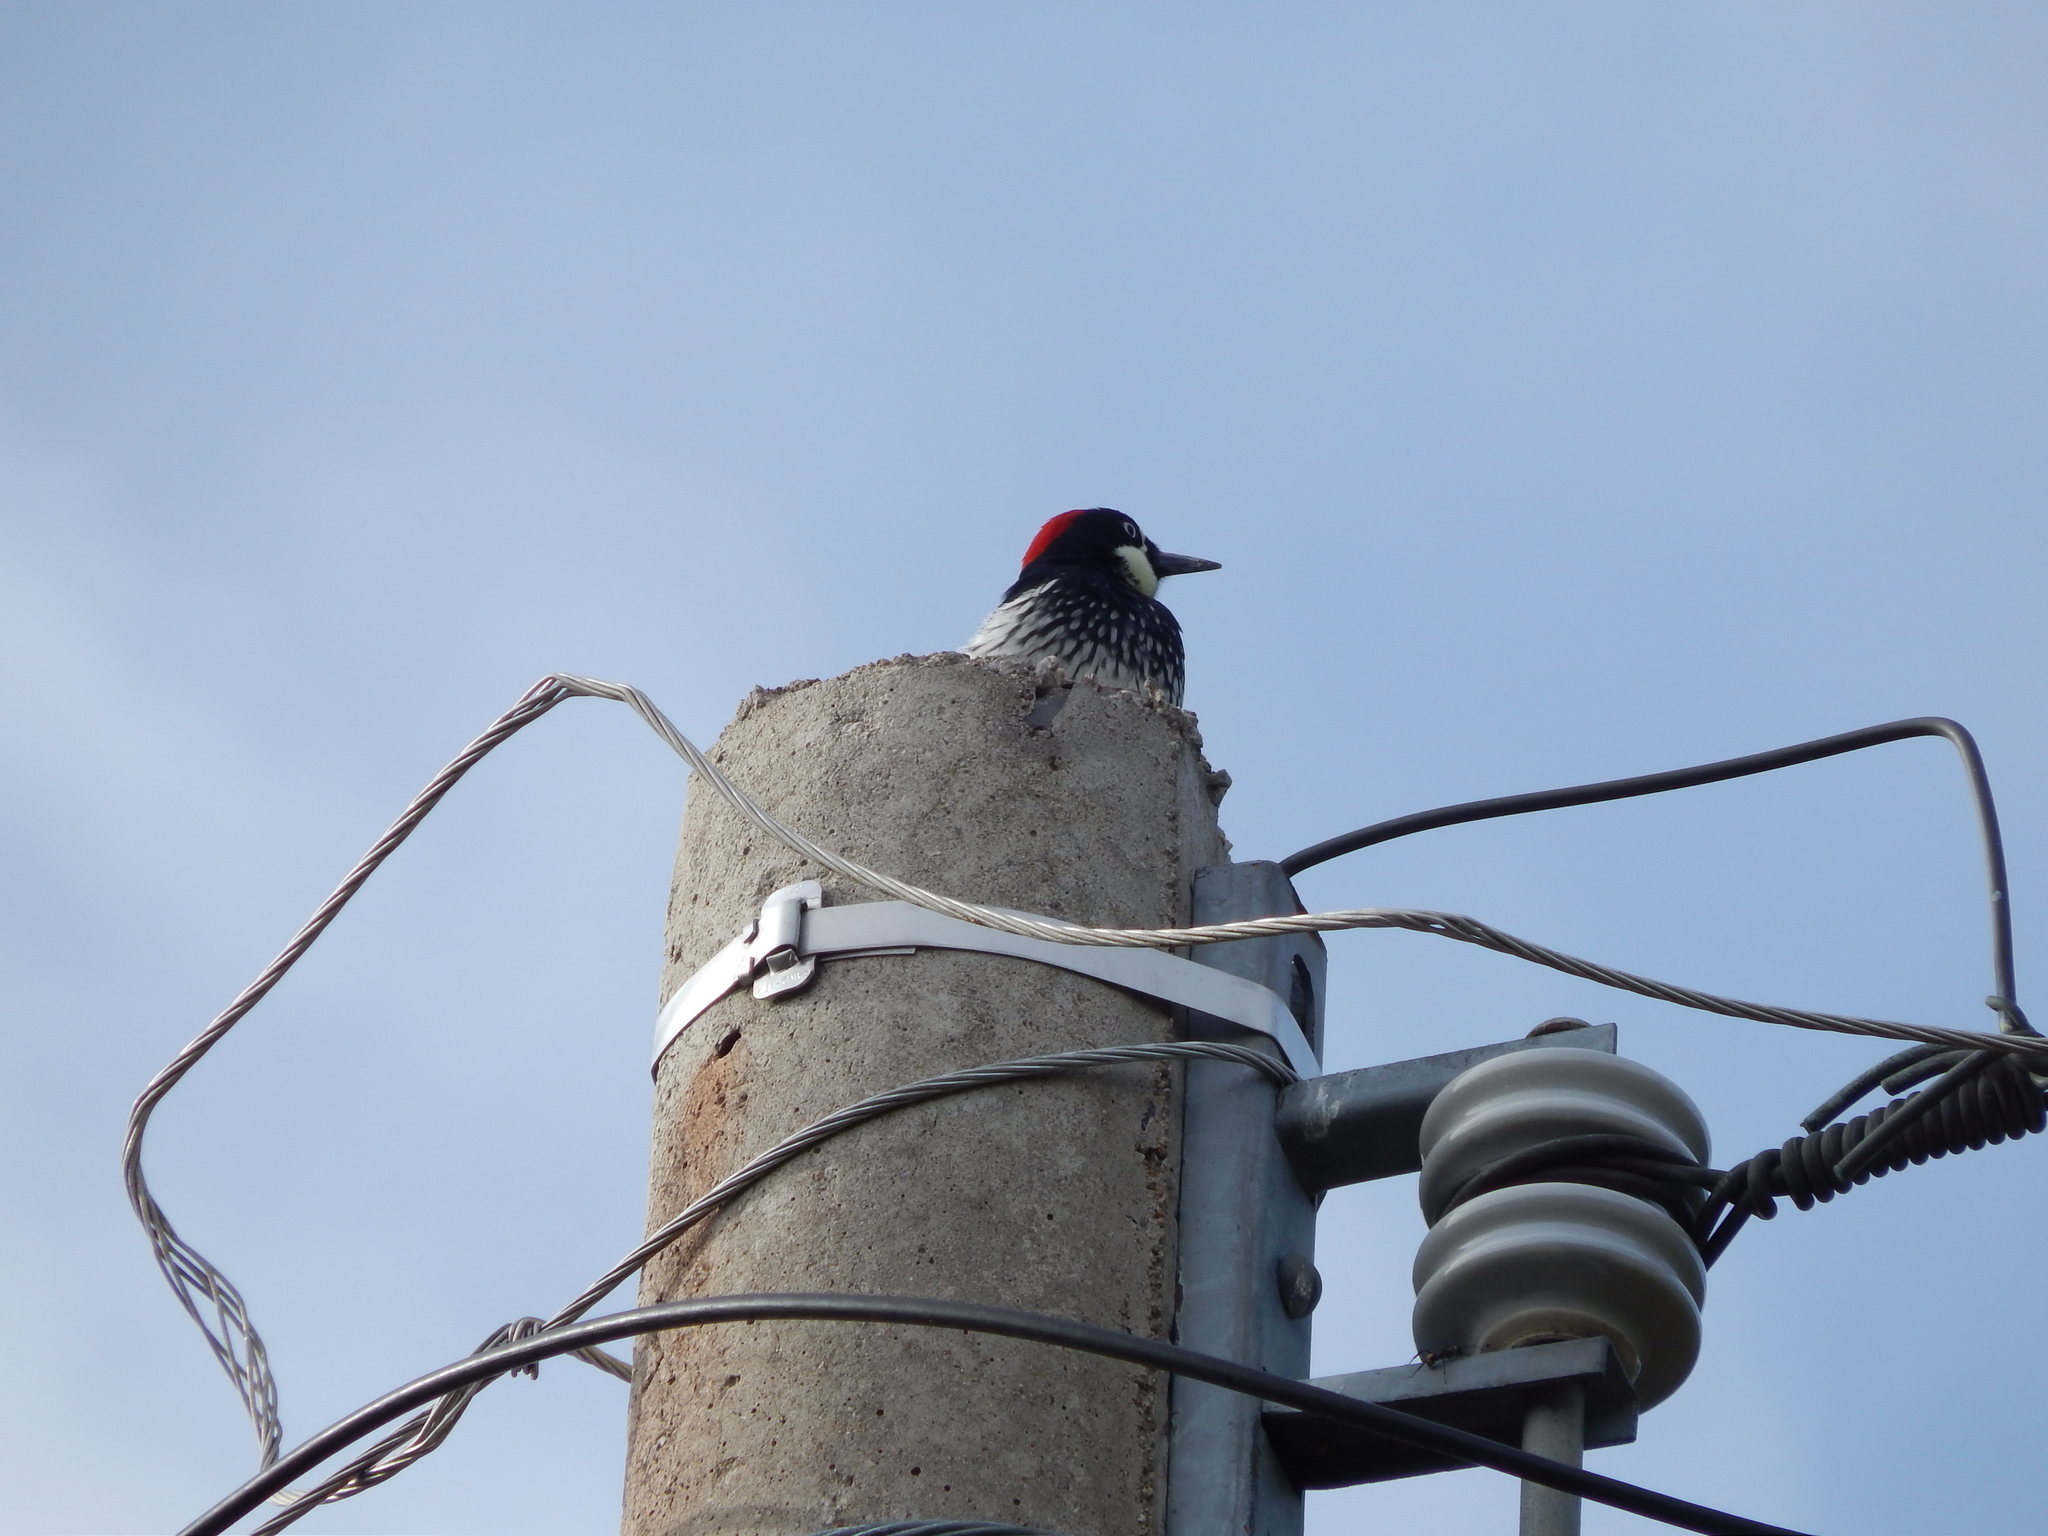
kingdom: Animalia
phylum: Chordata
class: Aves
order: Piciformes
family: Picidae
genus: Melanerpes
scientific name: Melanerpes formicivorus
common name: Acorn woodpecker
